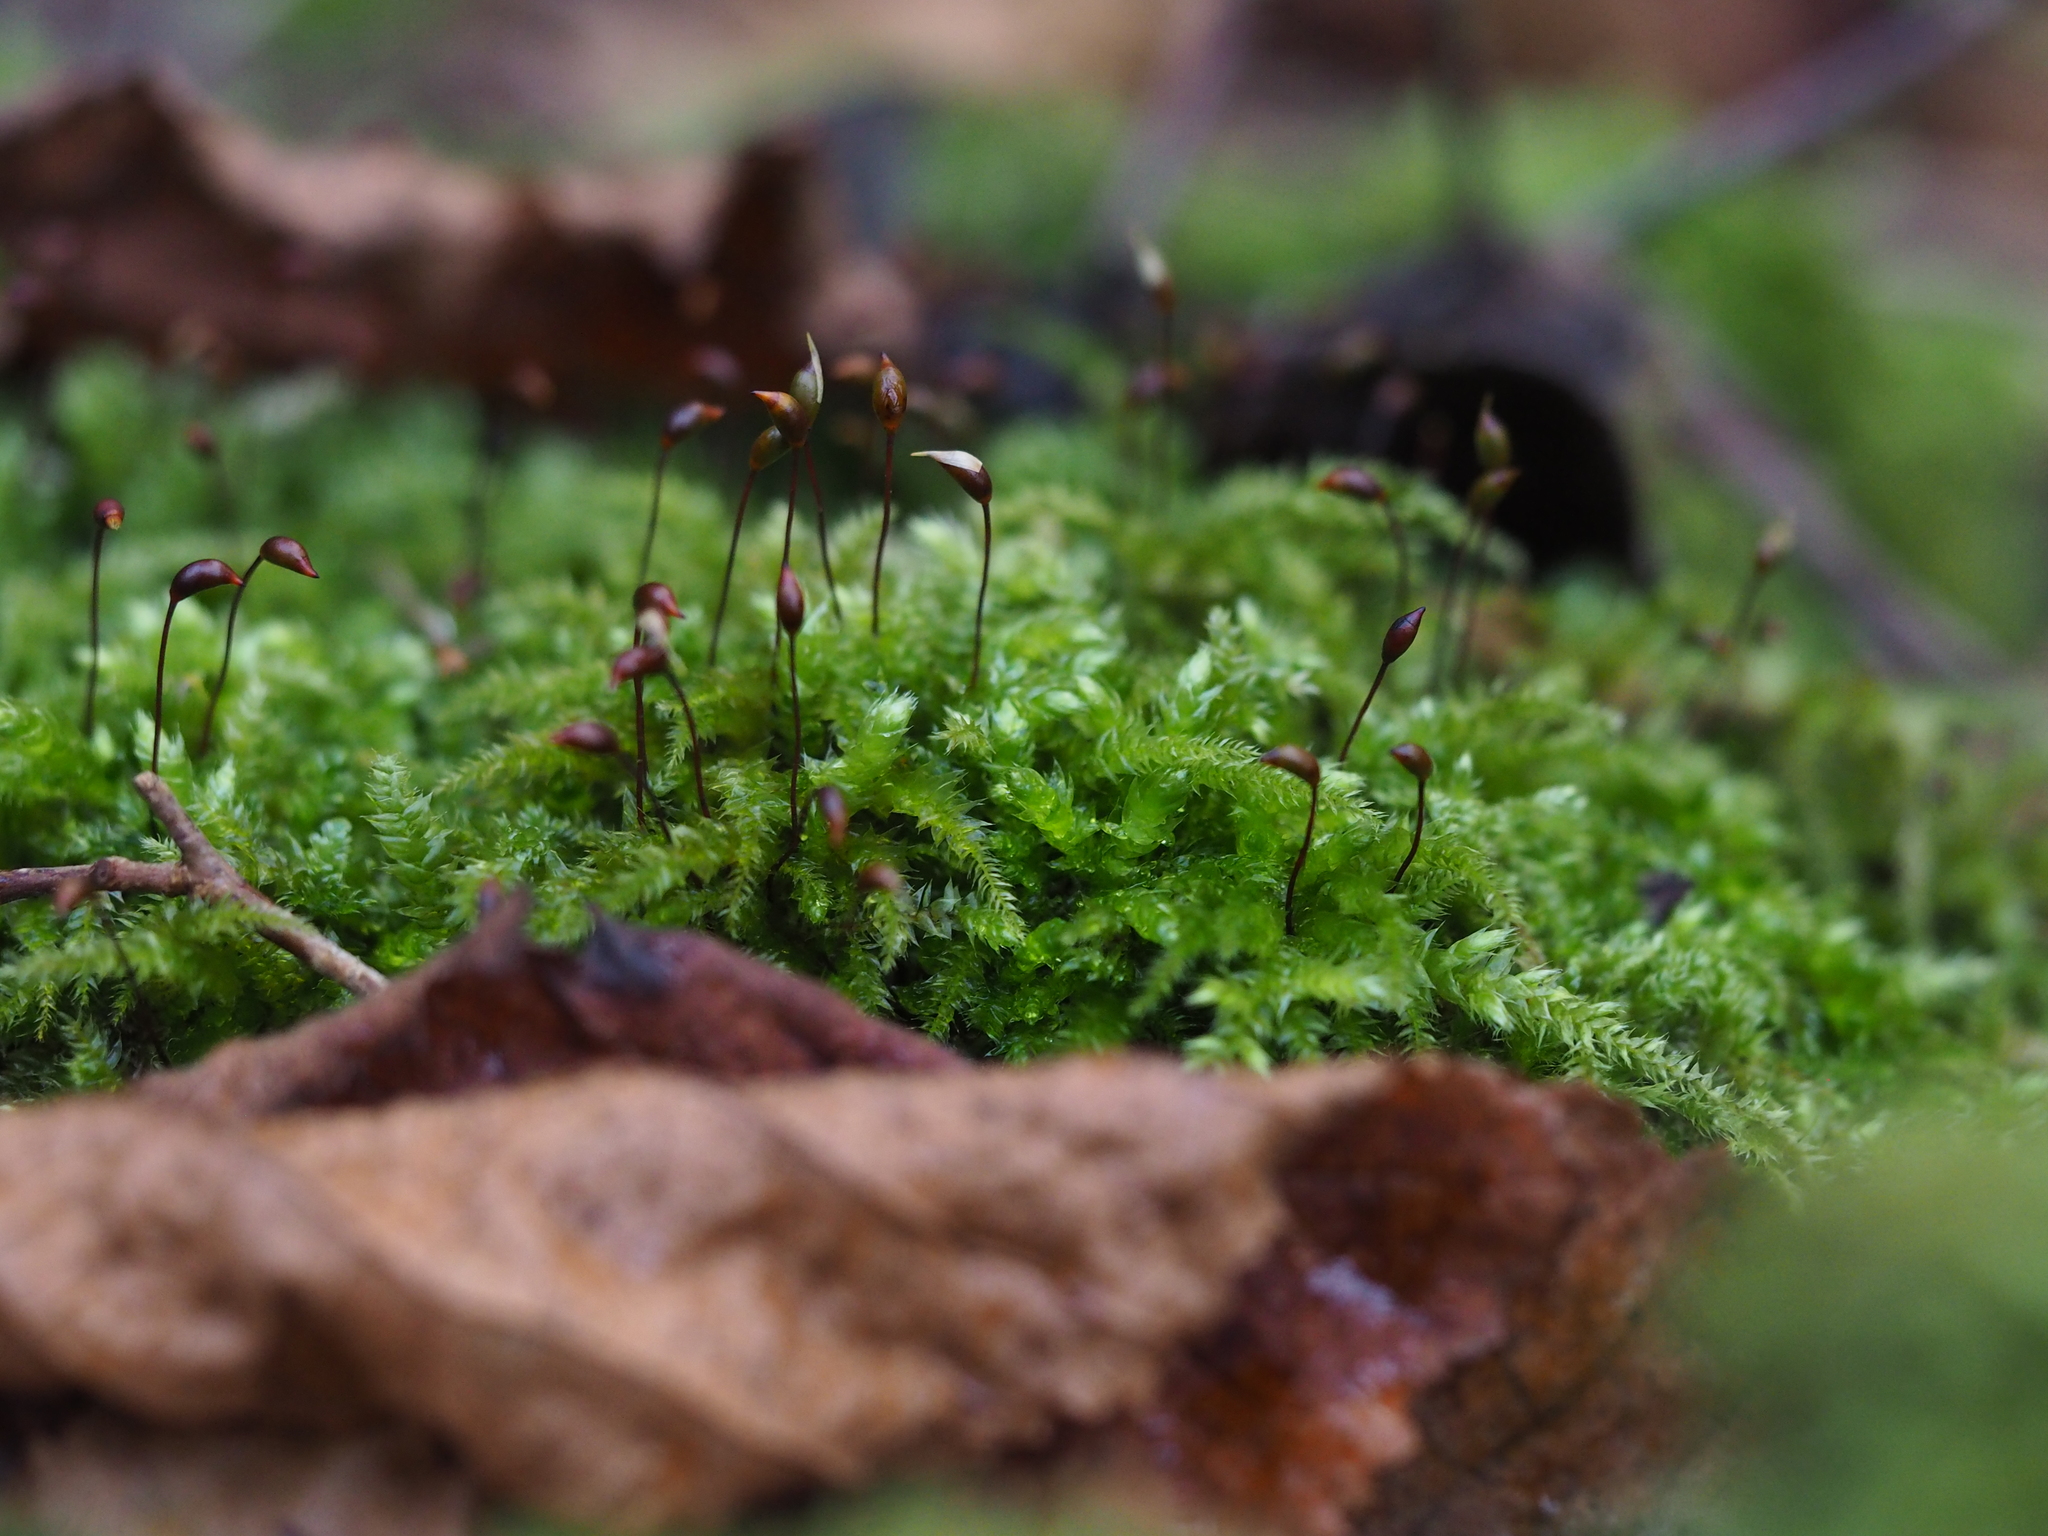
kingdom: Plantae
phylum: Bryophyta
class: Bryopsida
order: Hypnales
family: Brachytheciaceae
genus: Brachythecium
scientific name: Brachythecium rutabulum
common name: Rough-stalked feather-moss
